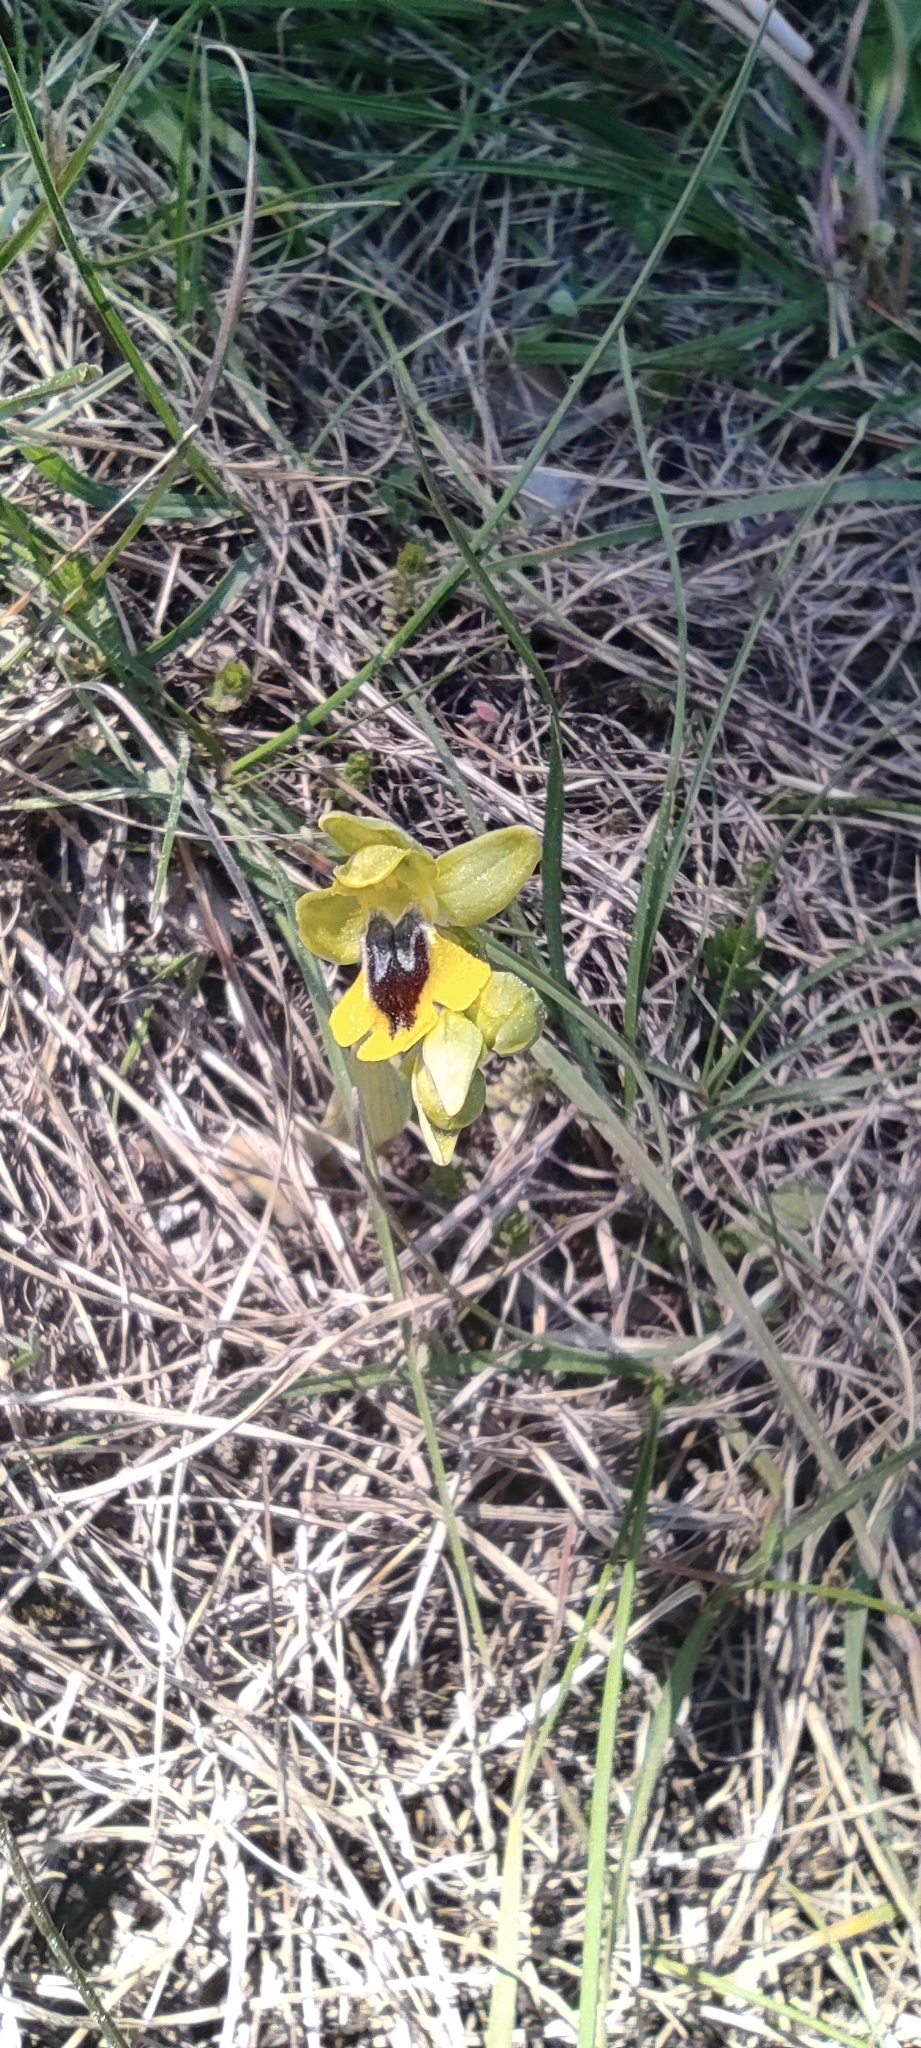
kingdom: Plantae
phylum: Tracheophyta
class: Liliopsida
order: Asparagales
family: Orchidaceae
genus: Ophrys
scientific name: Ophrys lutea
